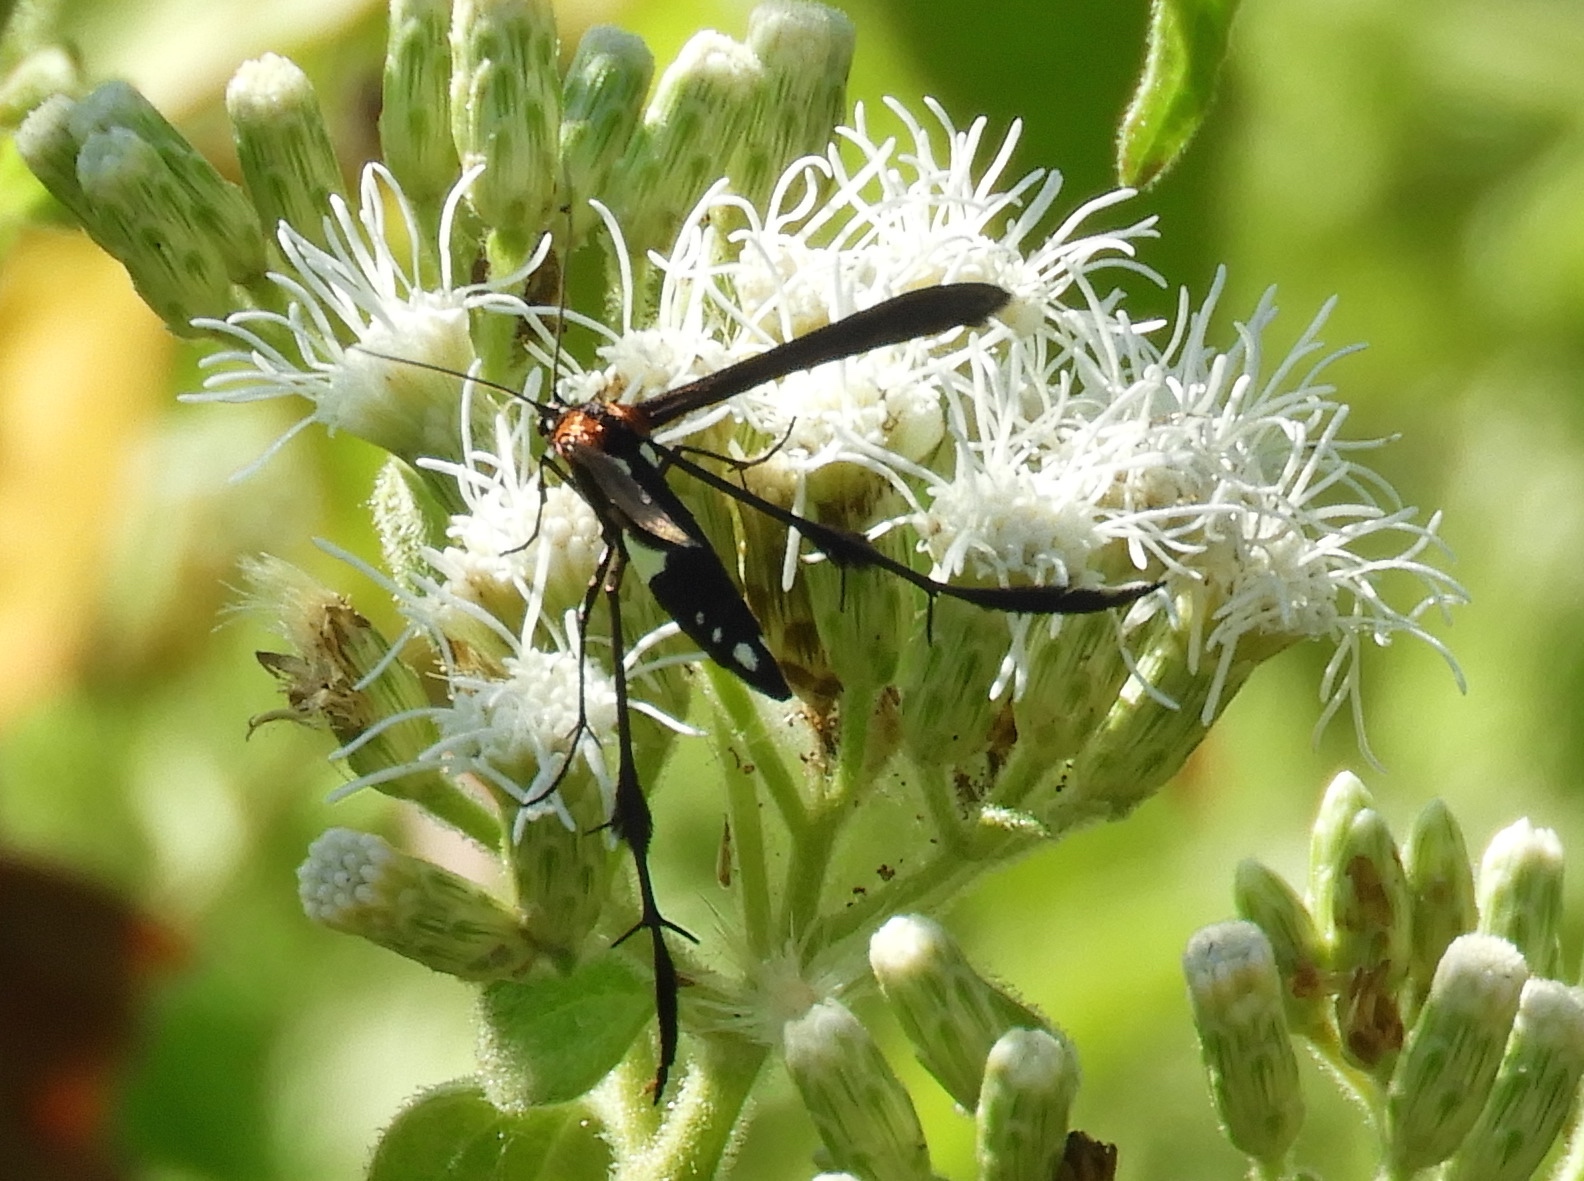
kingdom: Animalia
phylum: Arthropoda
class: Insecta
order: Lepidoptera
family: Pterophoridae
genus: Hellinsia
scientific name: Hellinsia chamelai
